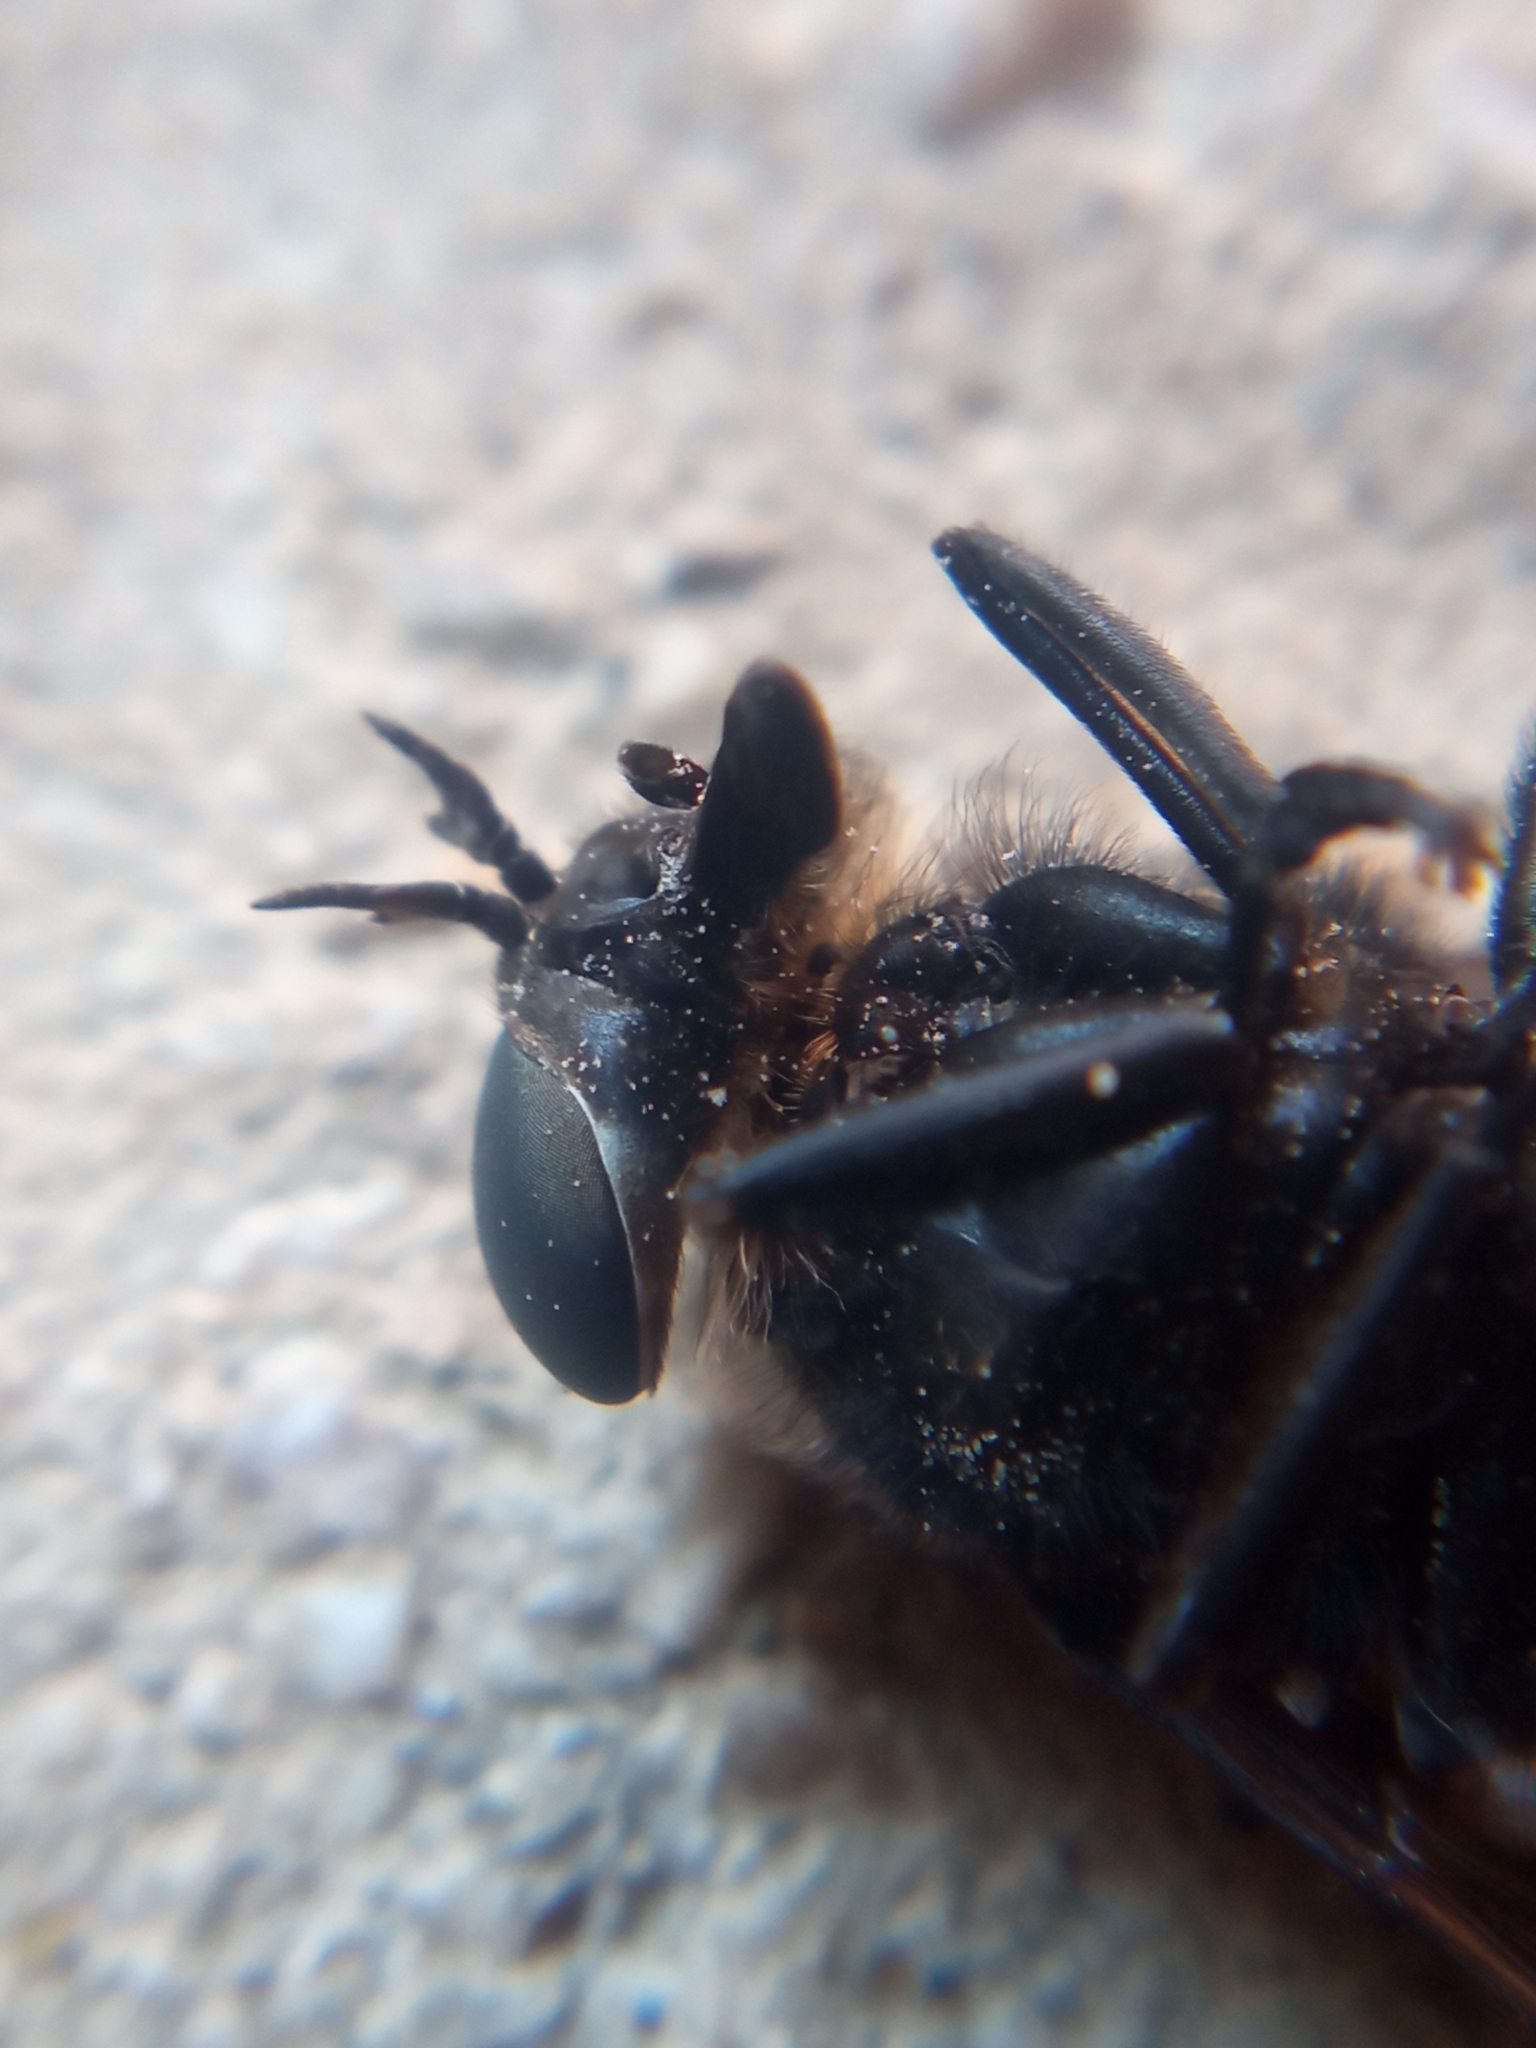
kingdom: Animalia
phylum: Arthropoda
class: Insecta
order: Diptera
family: Tabanidae
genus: Dasyrhamphis
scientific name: Dasyrhamphis ater
